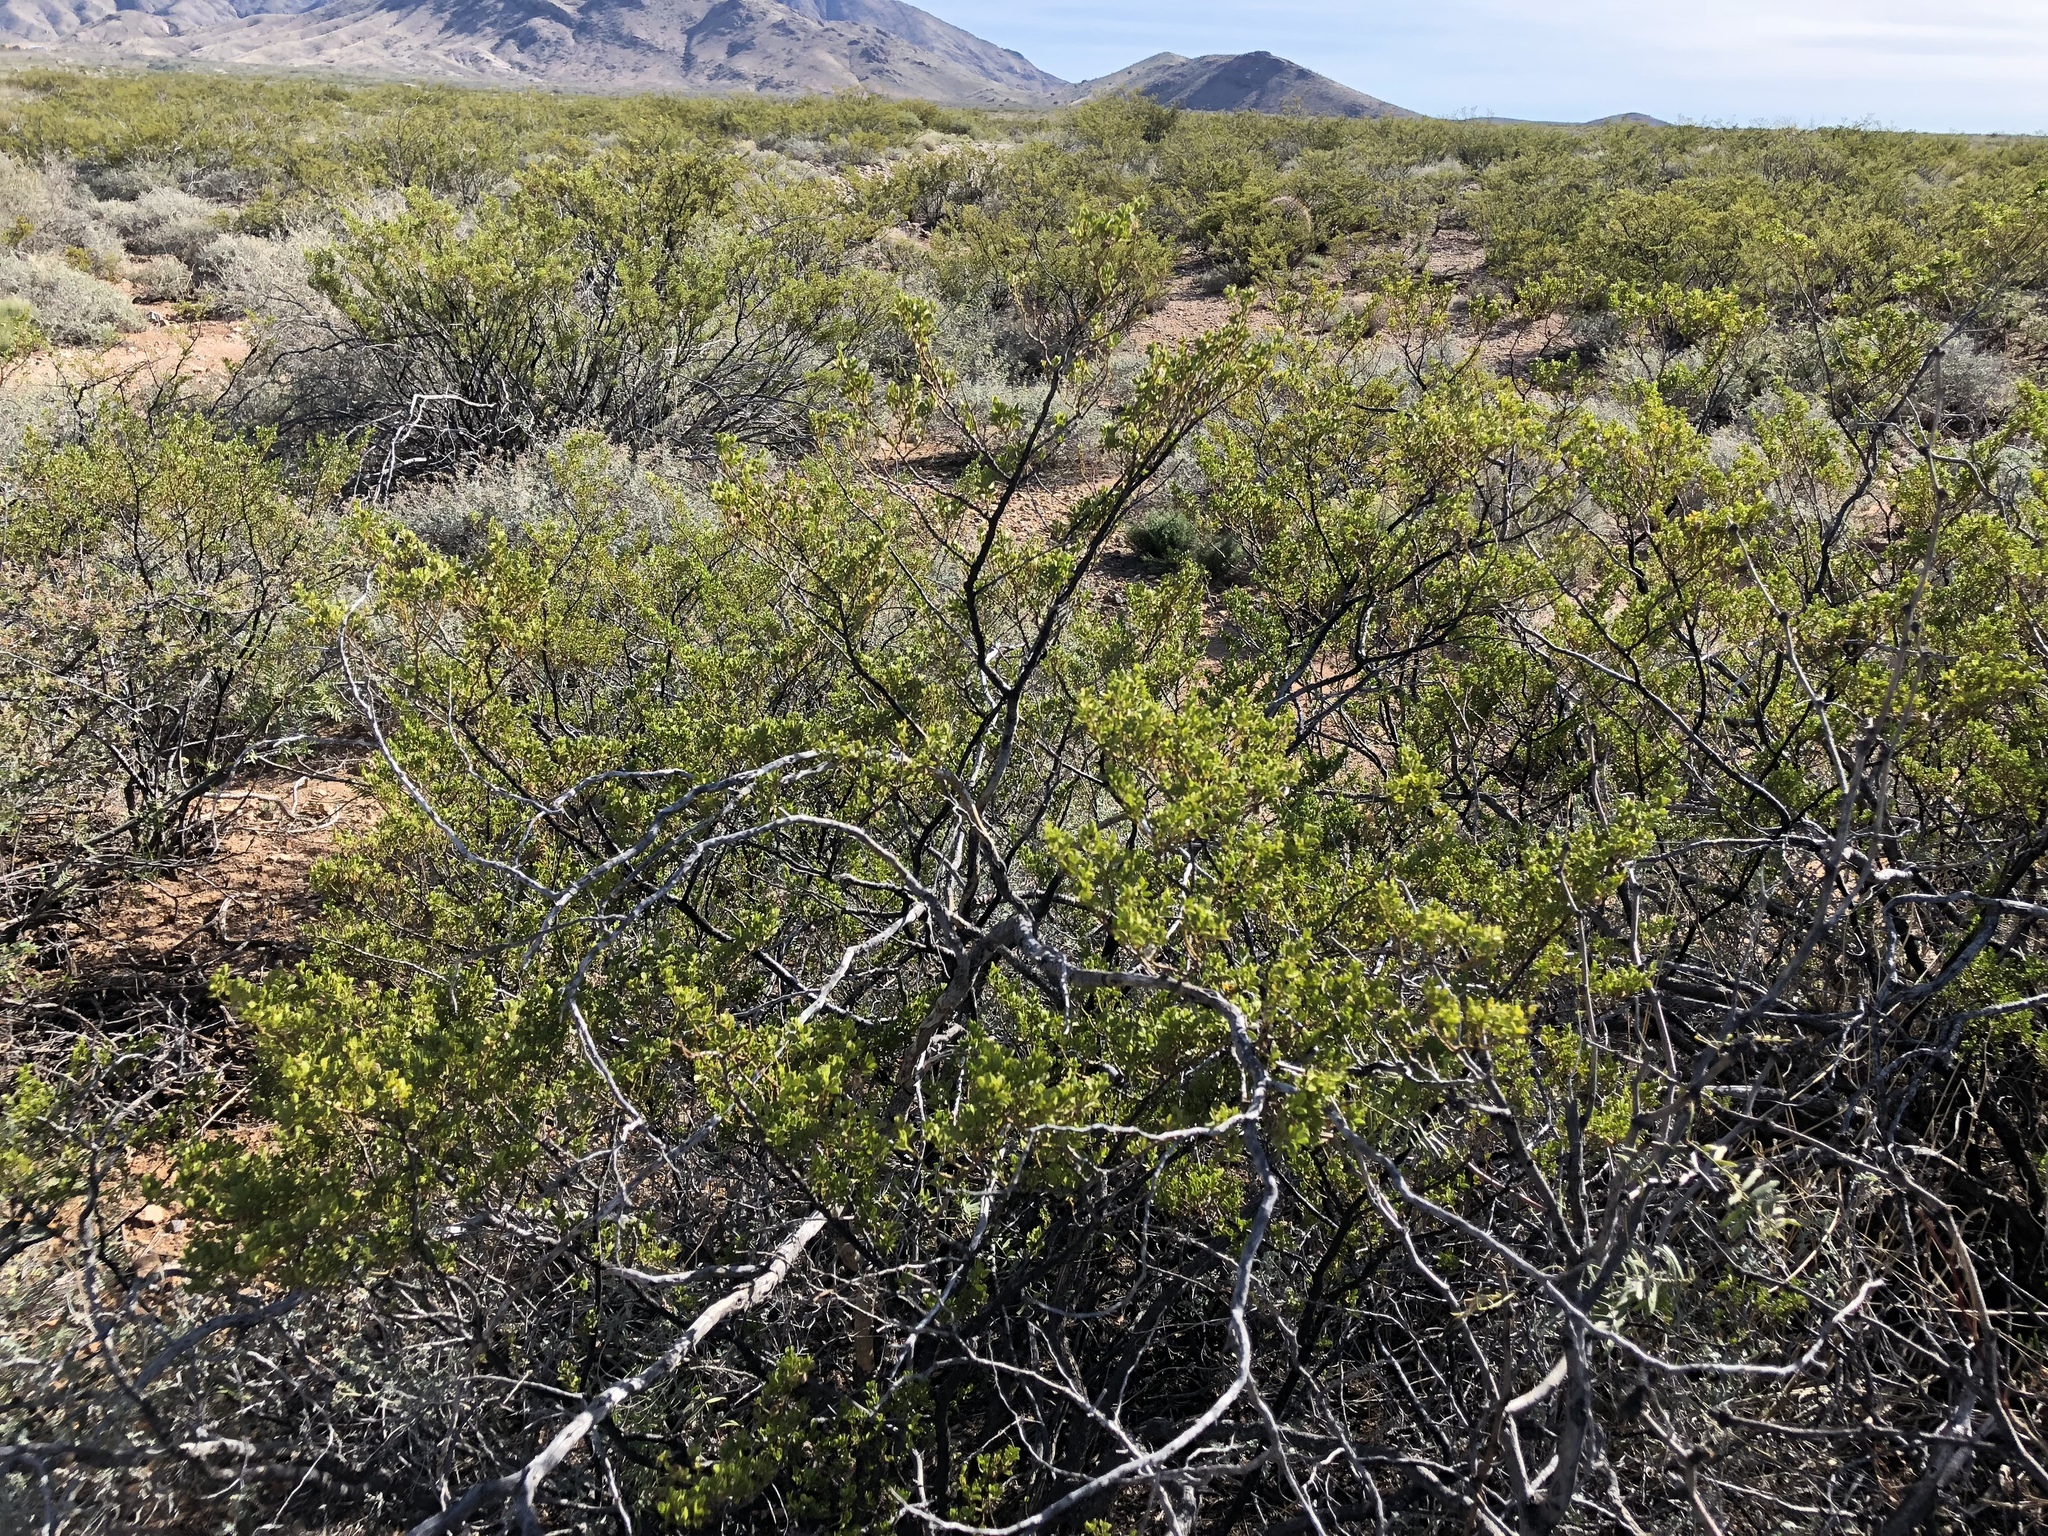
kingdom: Plantae
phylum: Tracheophyta
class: Magnoliopsida
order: Zygophyllales
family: Zygophyllaceae
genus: Larrea
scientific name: Larrea tridentata
